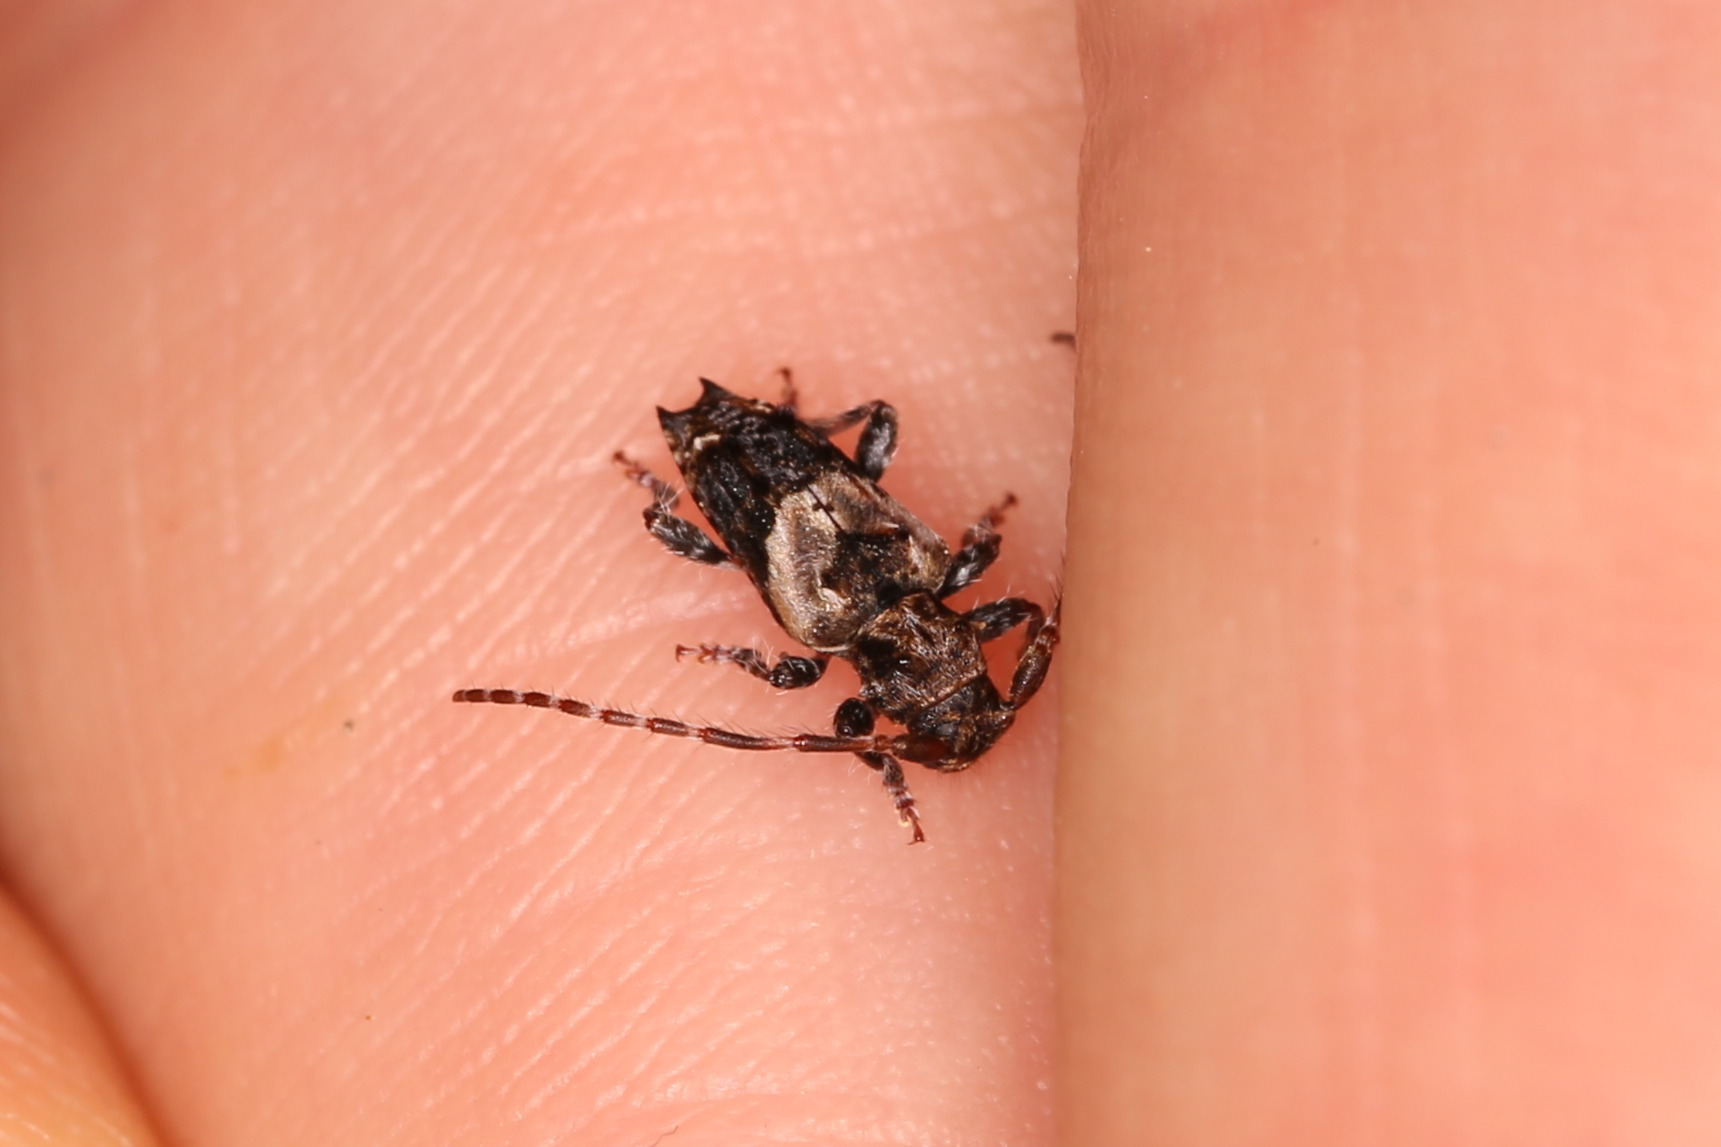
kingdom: Animalia
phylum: Arthropoda
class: Insecta
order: Coleoptera
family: Cerambycidae
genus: Pogonocherus
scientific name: Pogonocherus hispidus
